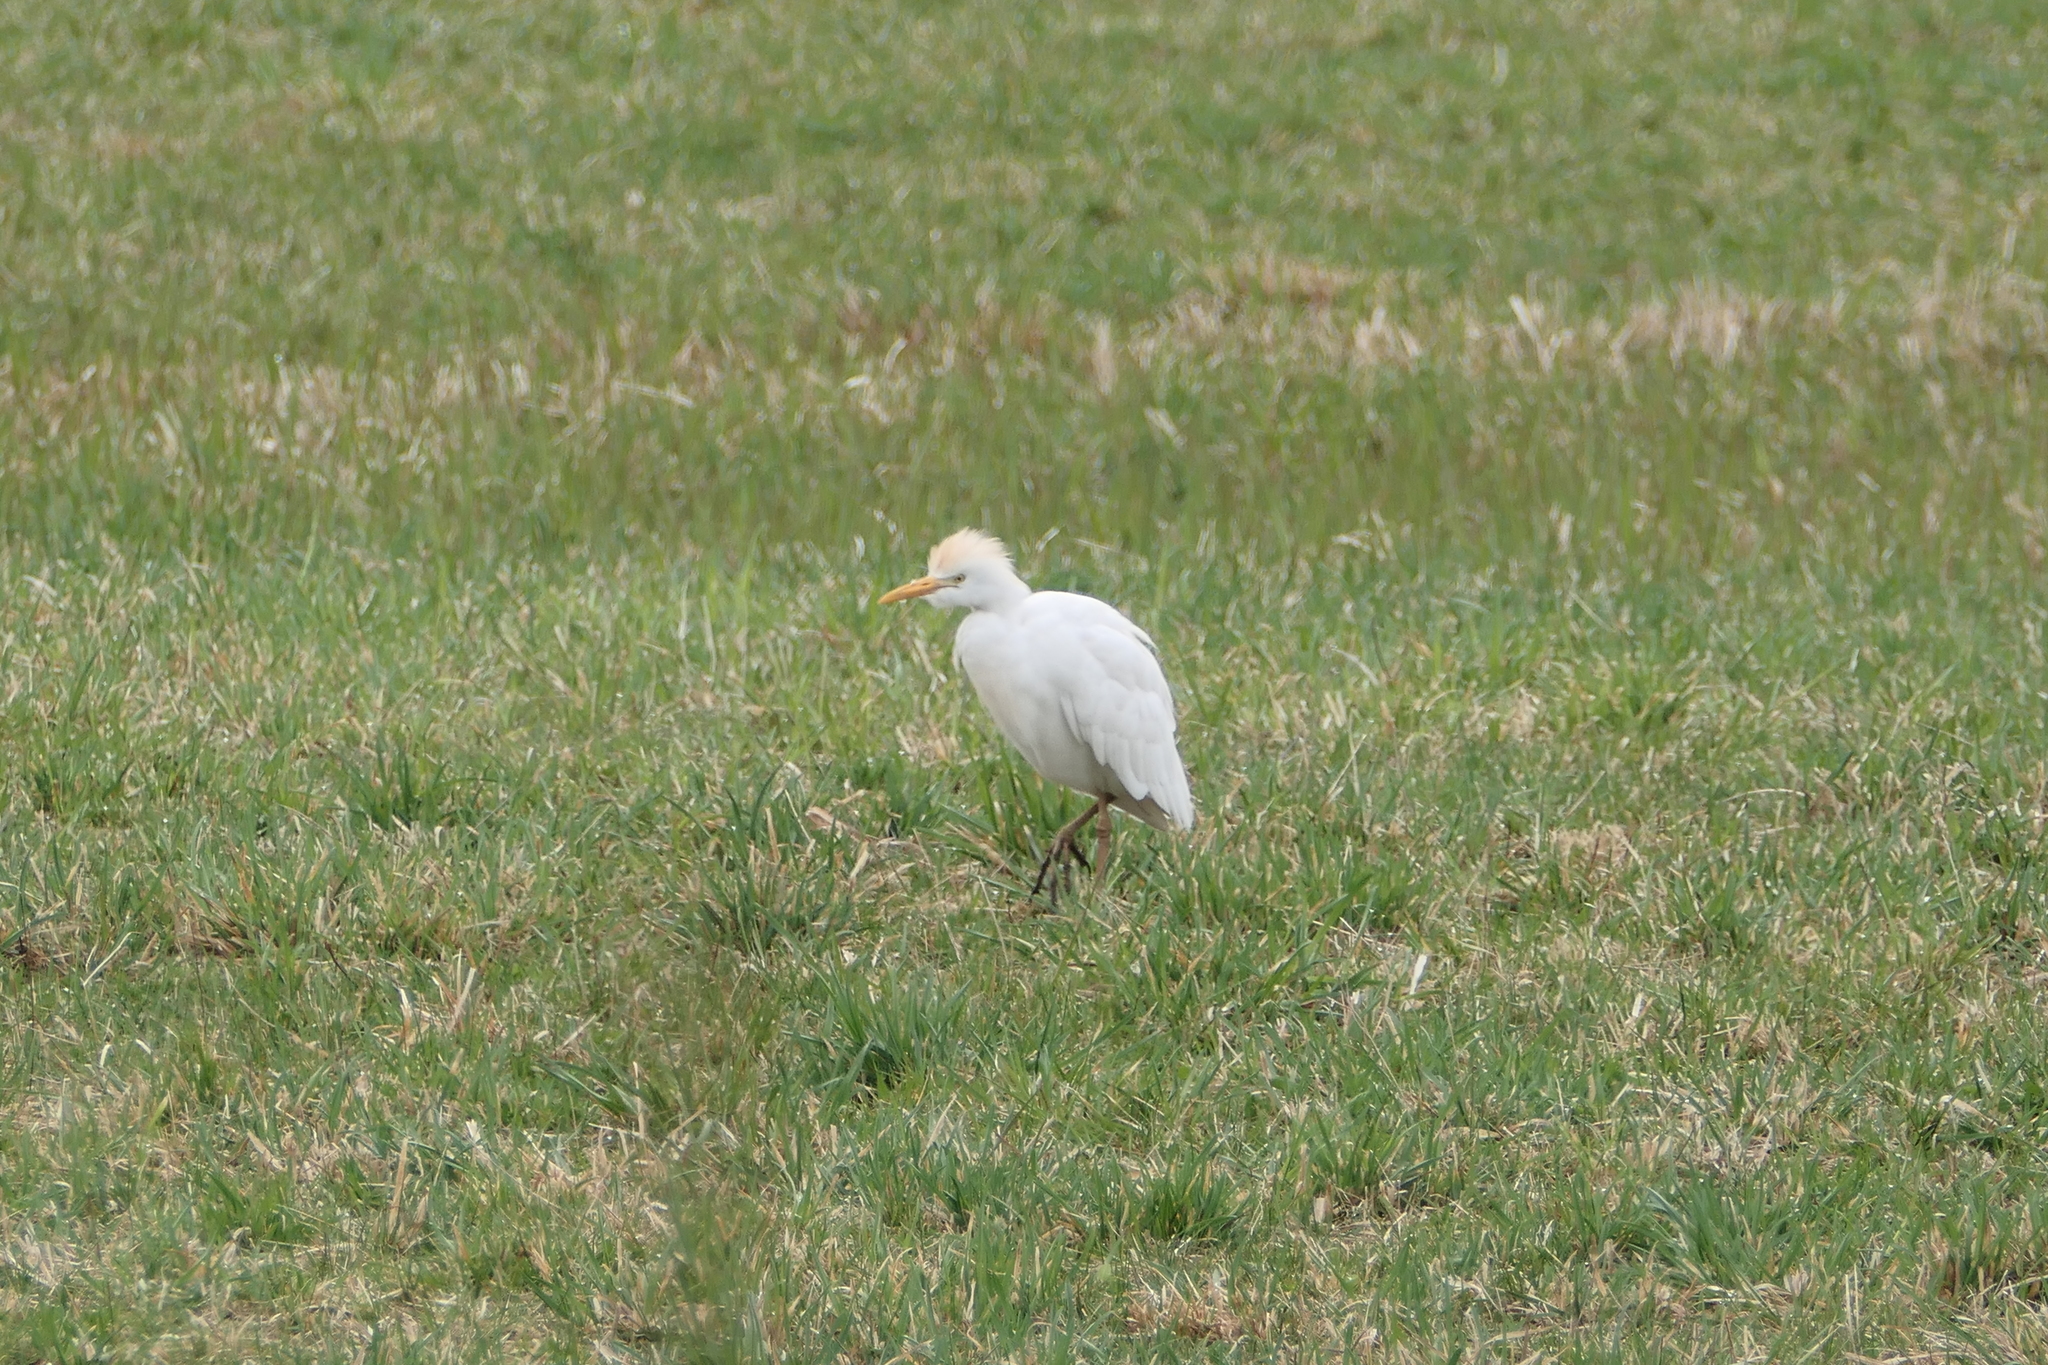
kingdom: Animalia
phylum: Chordata
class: Aves
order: Pelecaniformes
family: Ardeidae
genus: Bubulcus
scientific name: Bubulcus ibis
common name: Cattle egret
